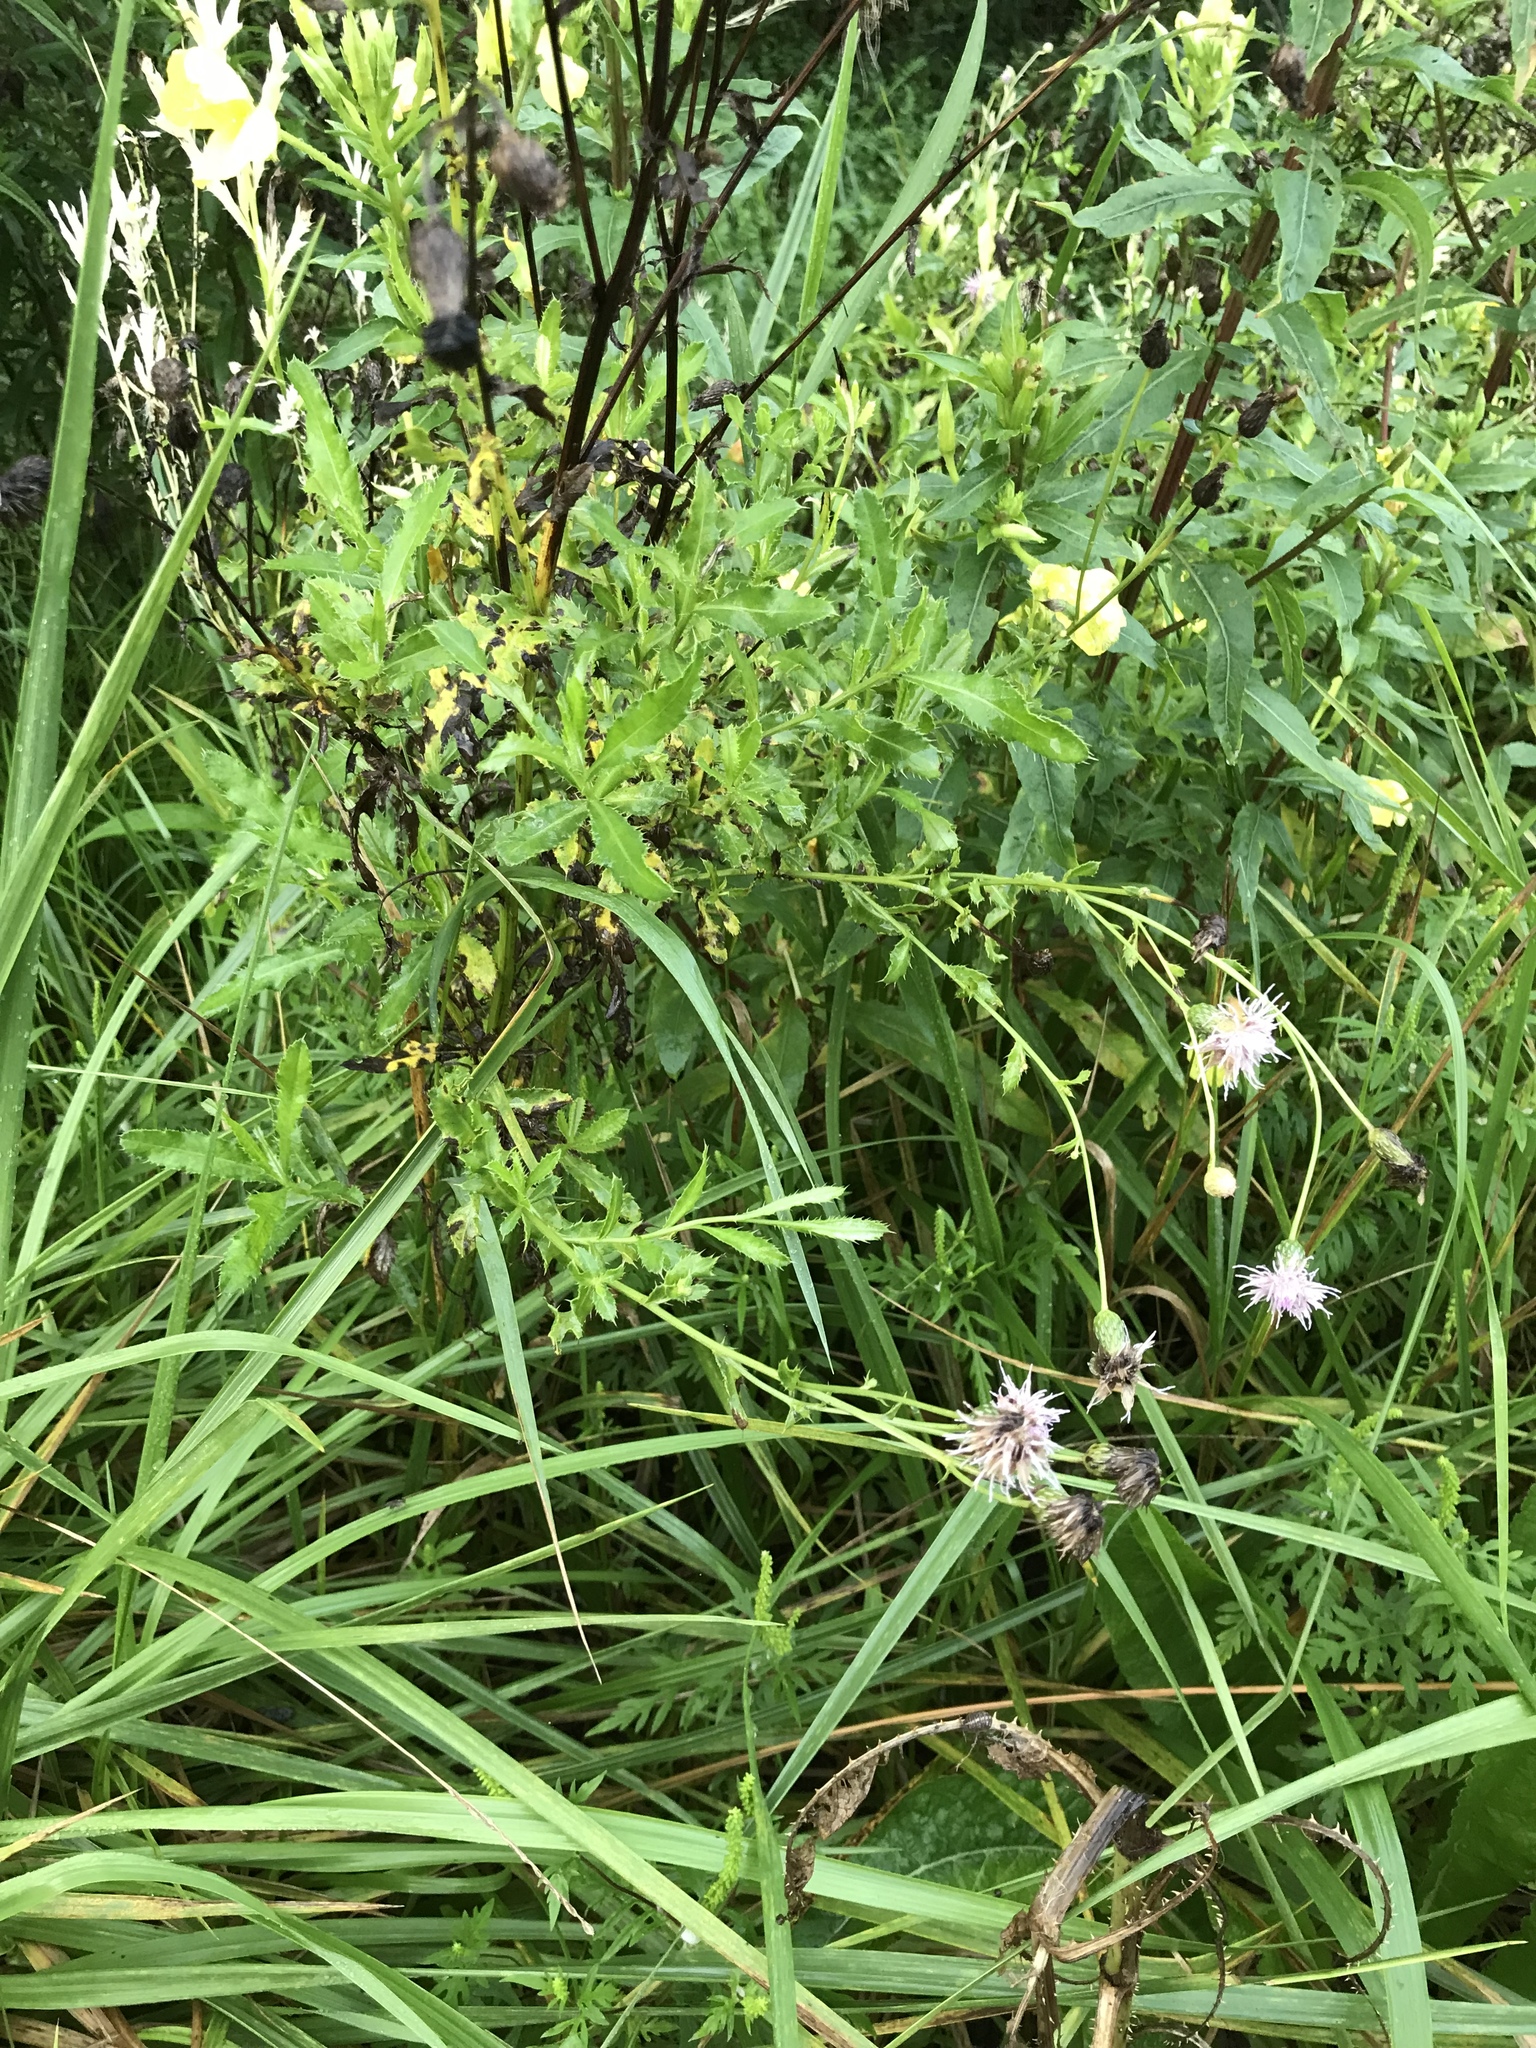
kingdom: Plantae
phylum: Tracheophyta
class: Magnoliopsida
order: Asterales
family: Asteraceae
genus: Cirsium
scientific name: Cirsium arvense
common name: Creeping thistle
